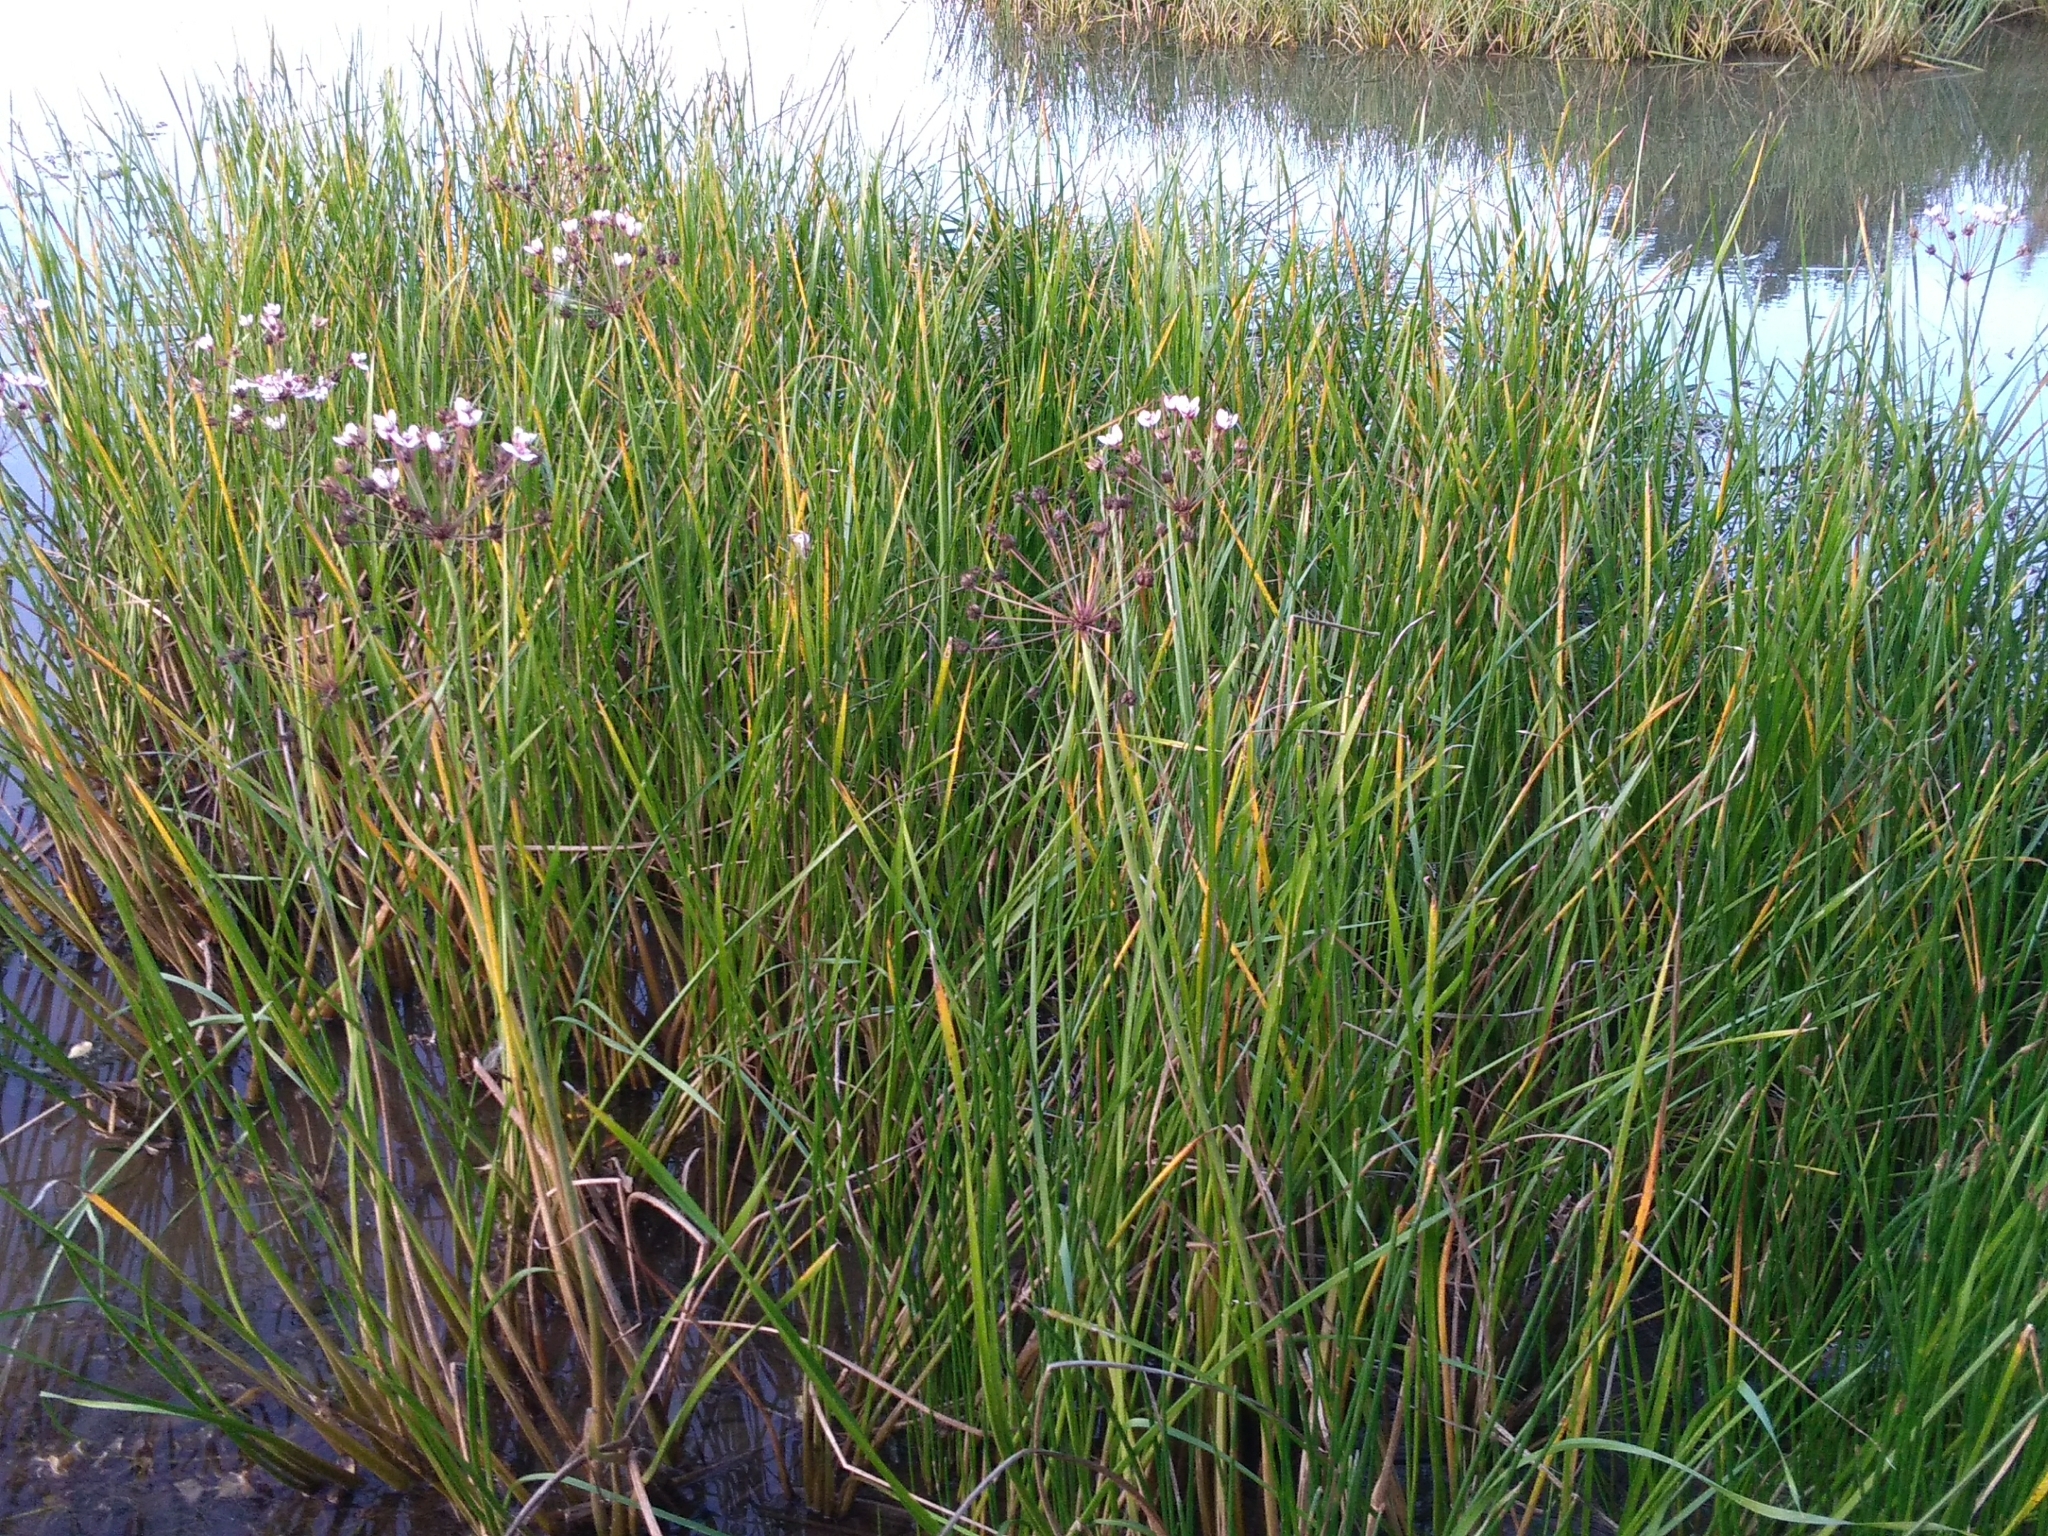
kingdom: Plantae
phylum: Tracheophyta
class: Liliopsida
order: Alismatales
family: Butomaceae
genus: Butomus
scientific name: Butomus umbellatus
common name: Flowering-rush
